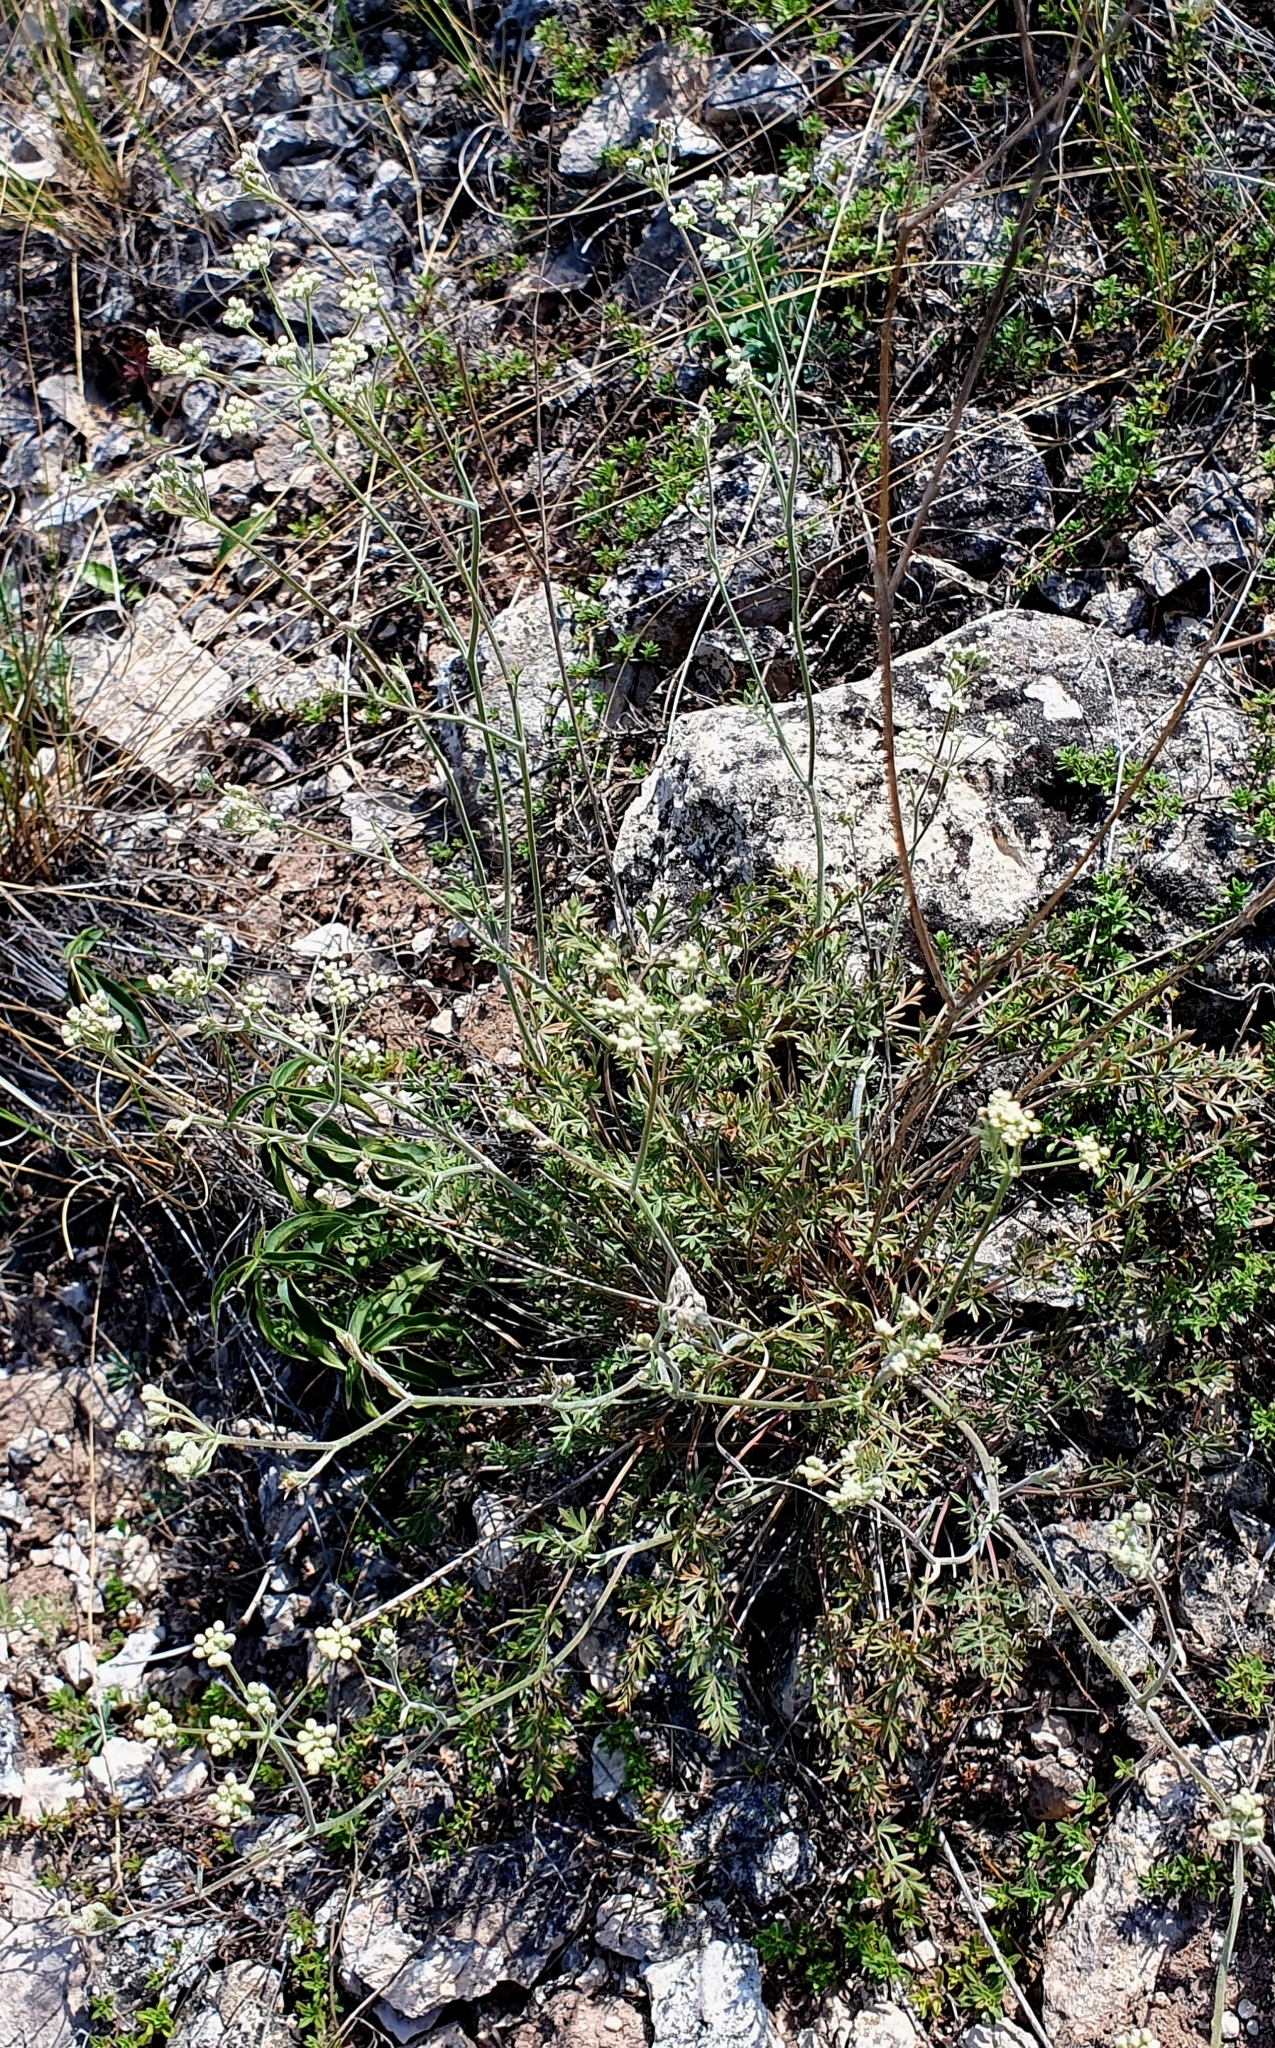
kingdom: Plantae
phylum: Tracheophyta
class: Magnoliopsida
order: Apiales
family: Apiaceae
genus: Pimpinella
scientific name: Pimpinella tragium
